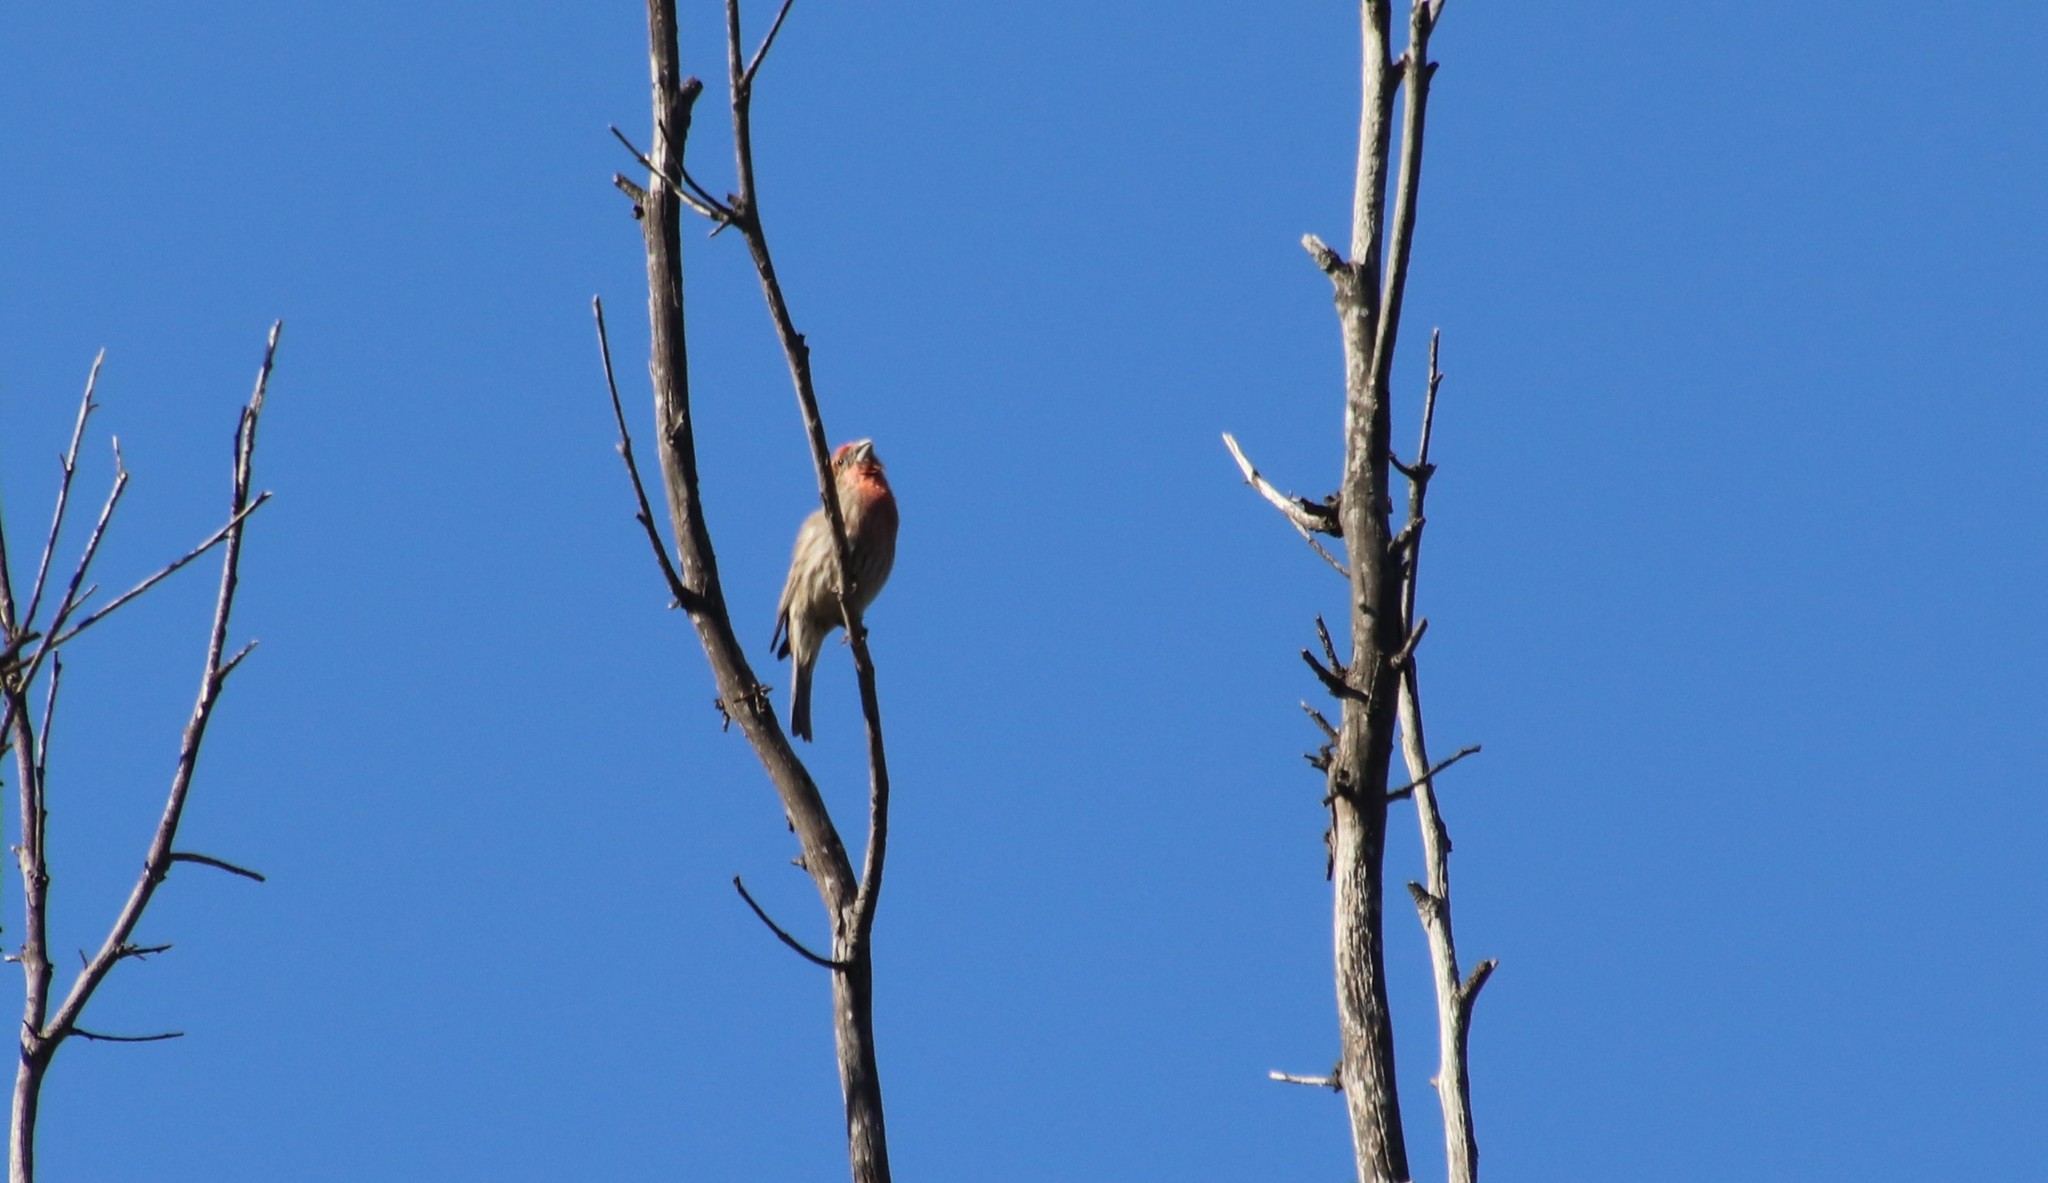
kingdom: Animalia
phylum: Chordata
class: Aves
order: Passeriformes
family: Fringillidae
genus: Haemorhous
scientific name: Haemorhous mexicanus
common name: House finch
